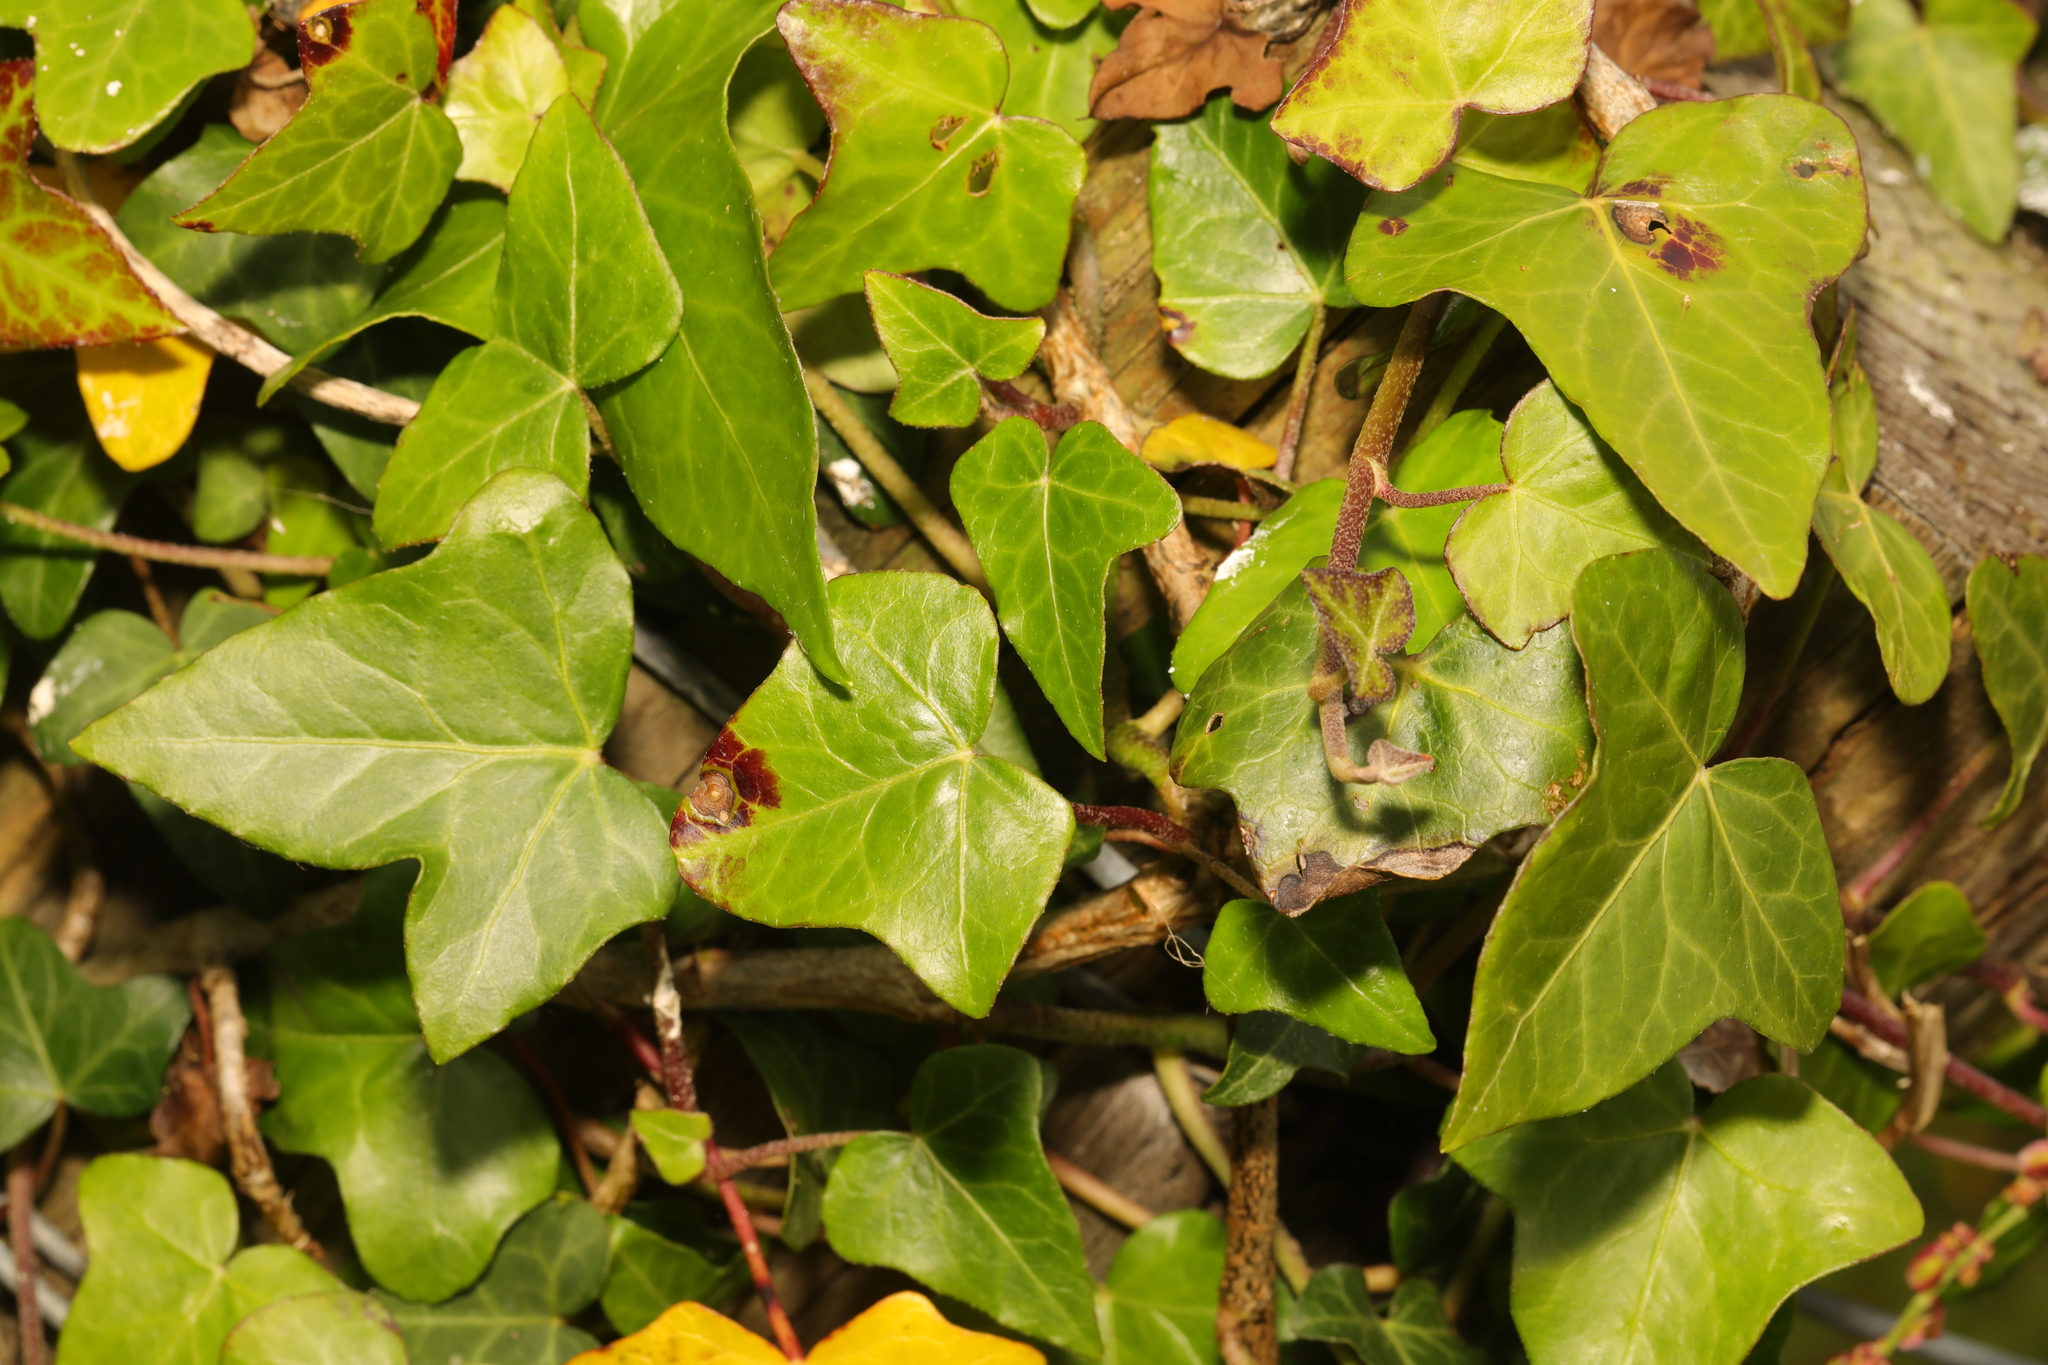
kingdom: Plantae
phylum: Tracheophyta
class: Magnoliopsida
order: Apiales
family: Araliaceae
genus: Hedera
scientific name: Hedera helix
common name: Ivy
